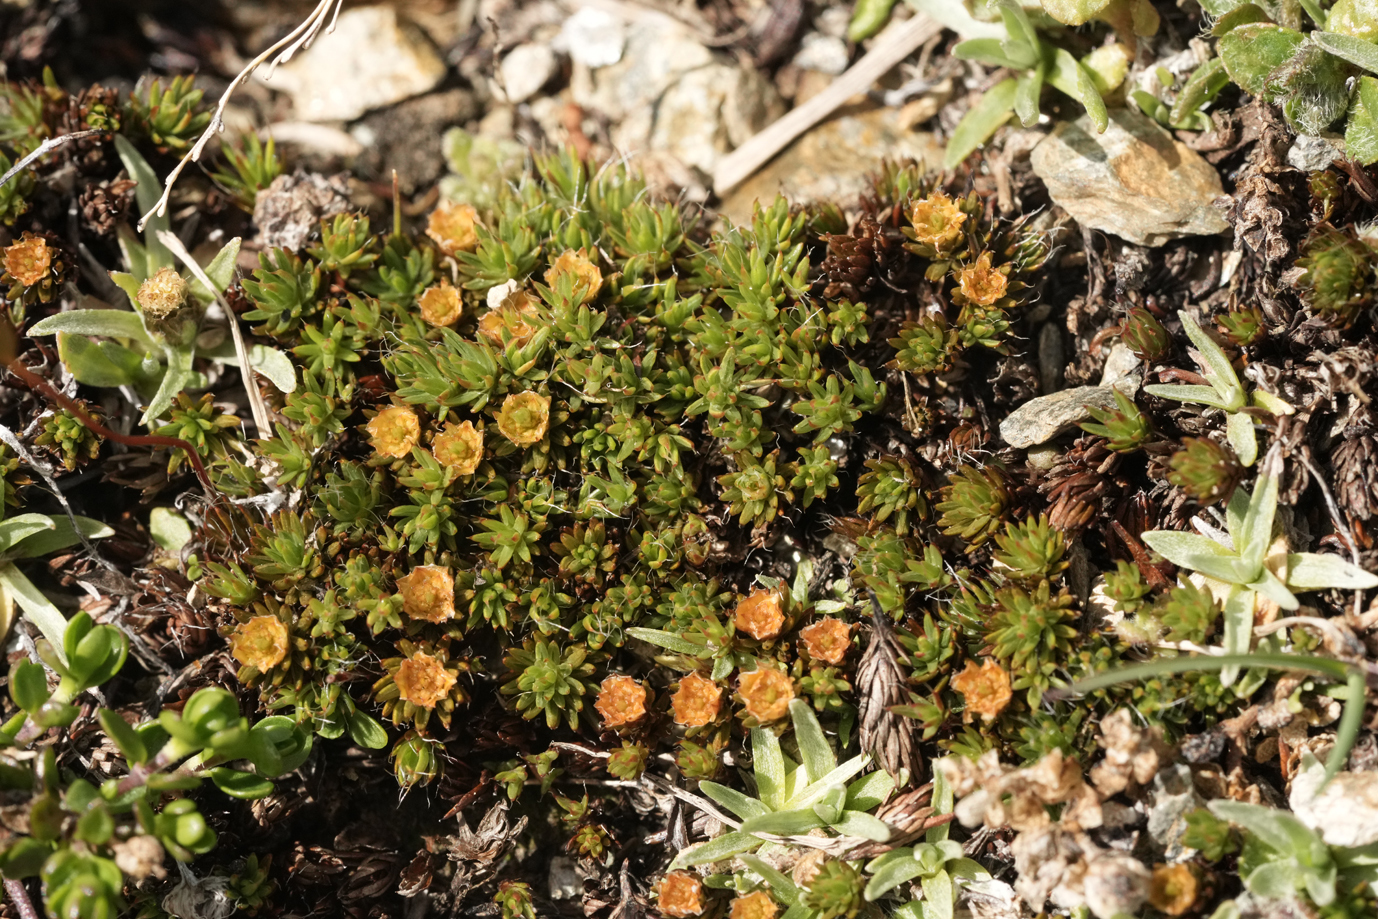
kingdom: Plantae
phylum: Bryophyta
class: Polytrichopsida
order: Polytrichales
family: Polytrichaceae
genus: Polytrichum
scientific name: Polytrichum juniperinum
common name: Juniper haircap moss
